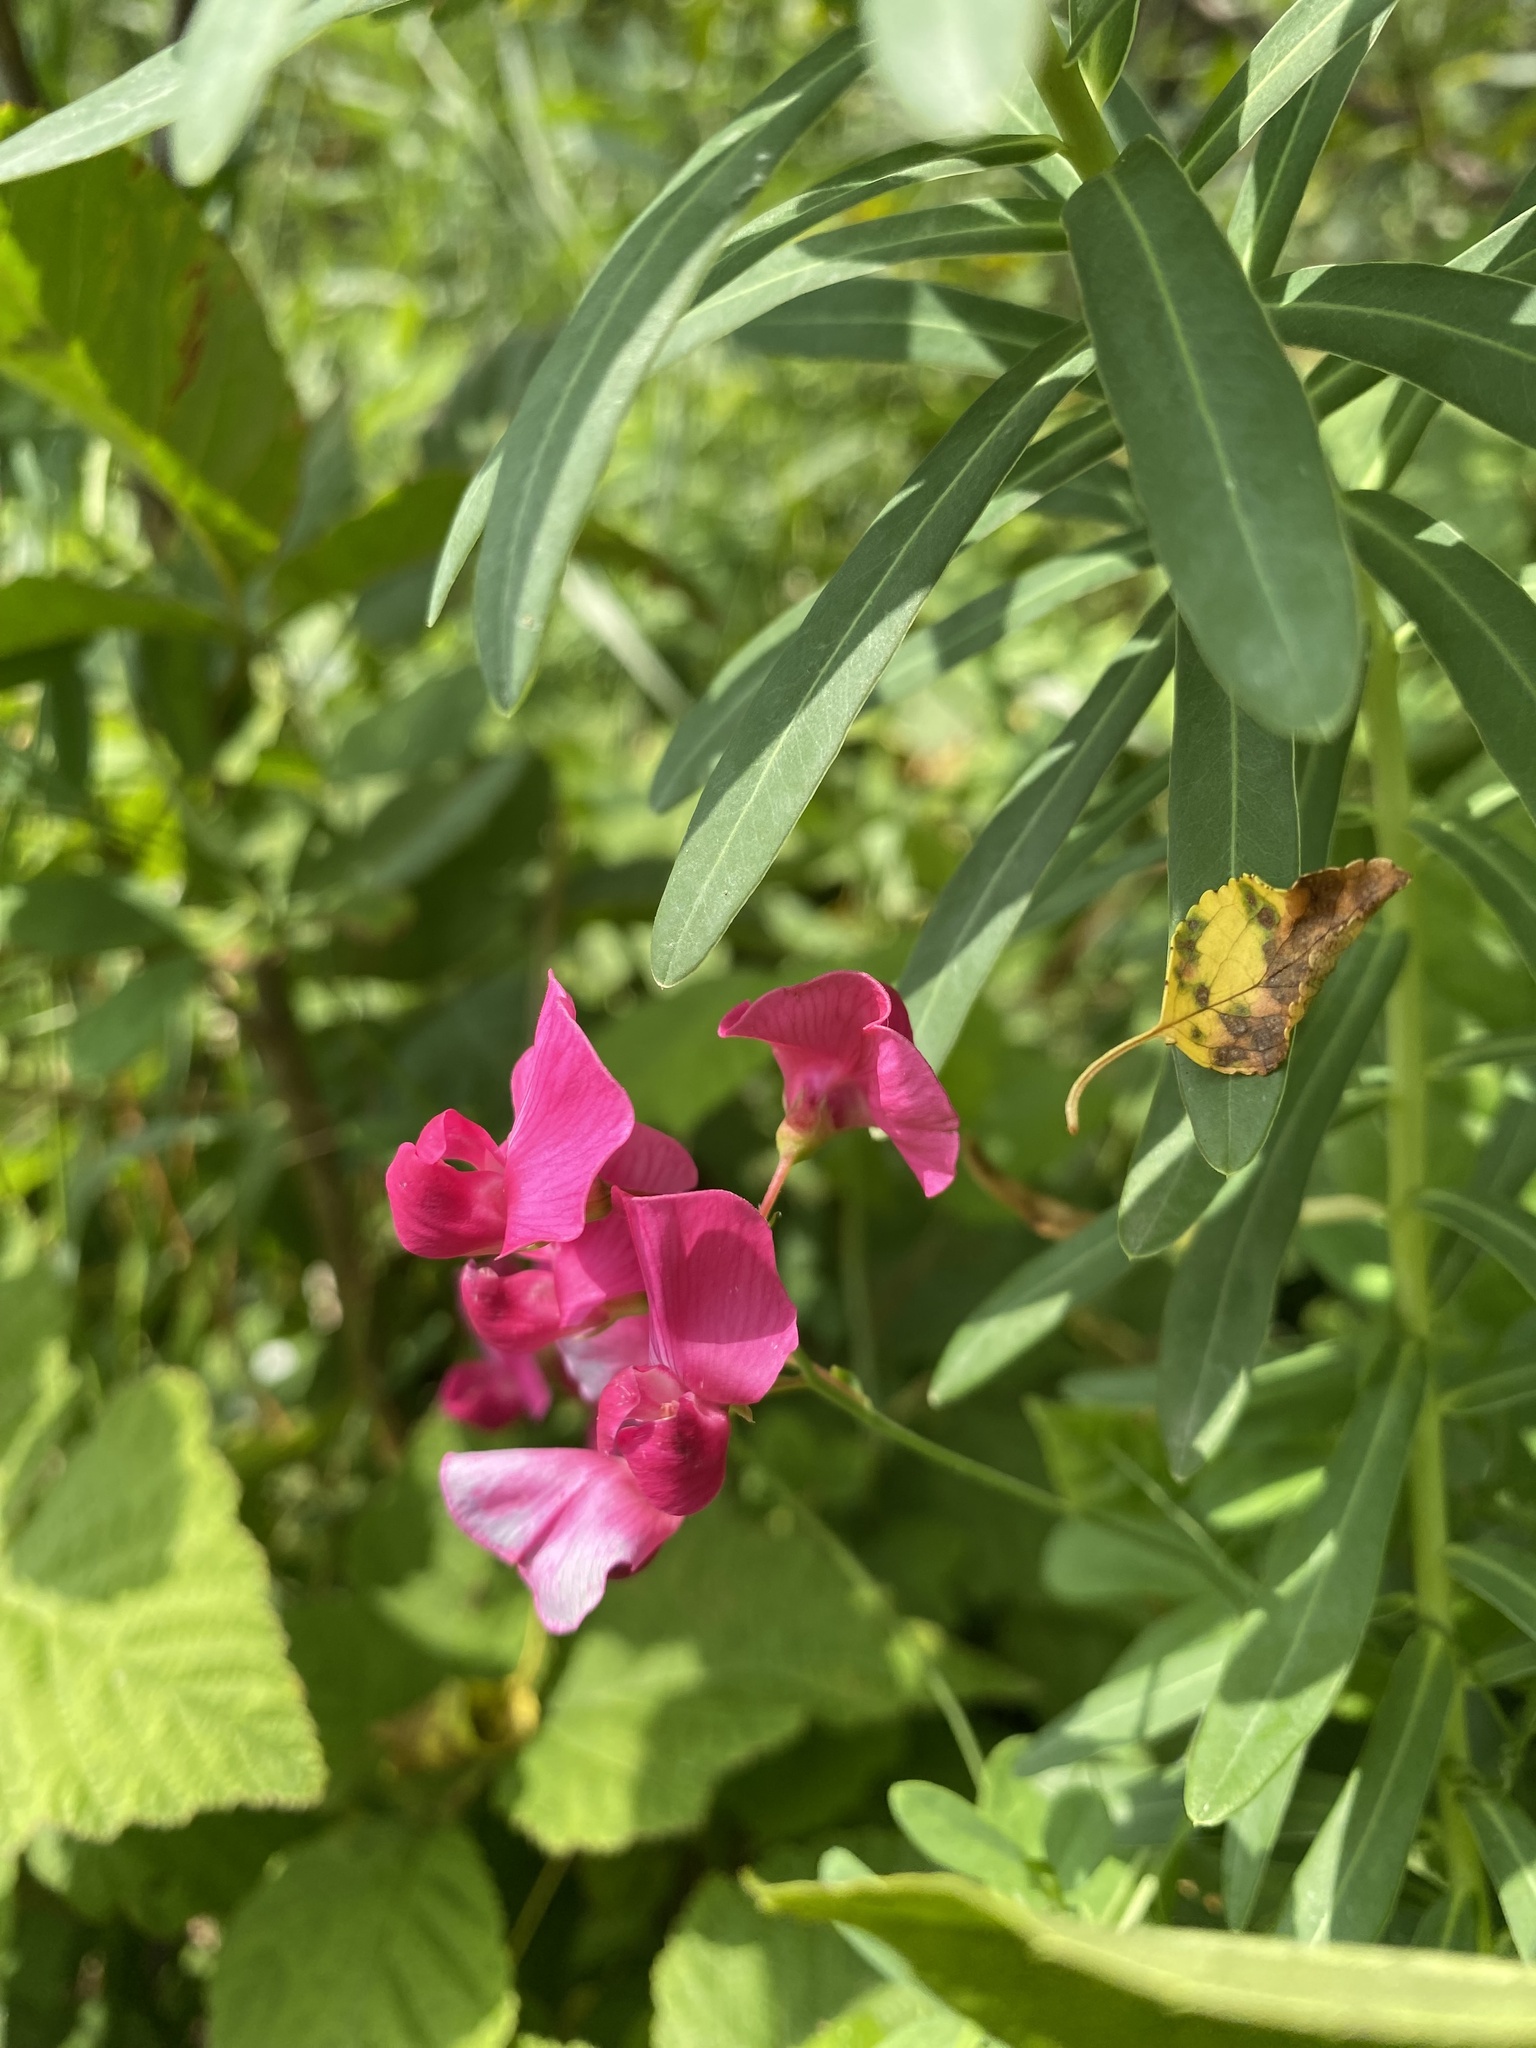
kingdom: Plantae
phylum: Tracheophyta
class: Magnoliopsida
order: Fabales
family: Fabaceae
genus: Lathyrus
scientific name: Lathyrus tuberosus
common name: Tuberous pea
